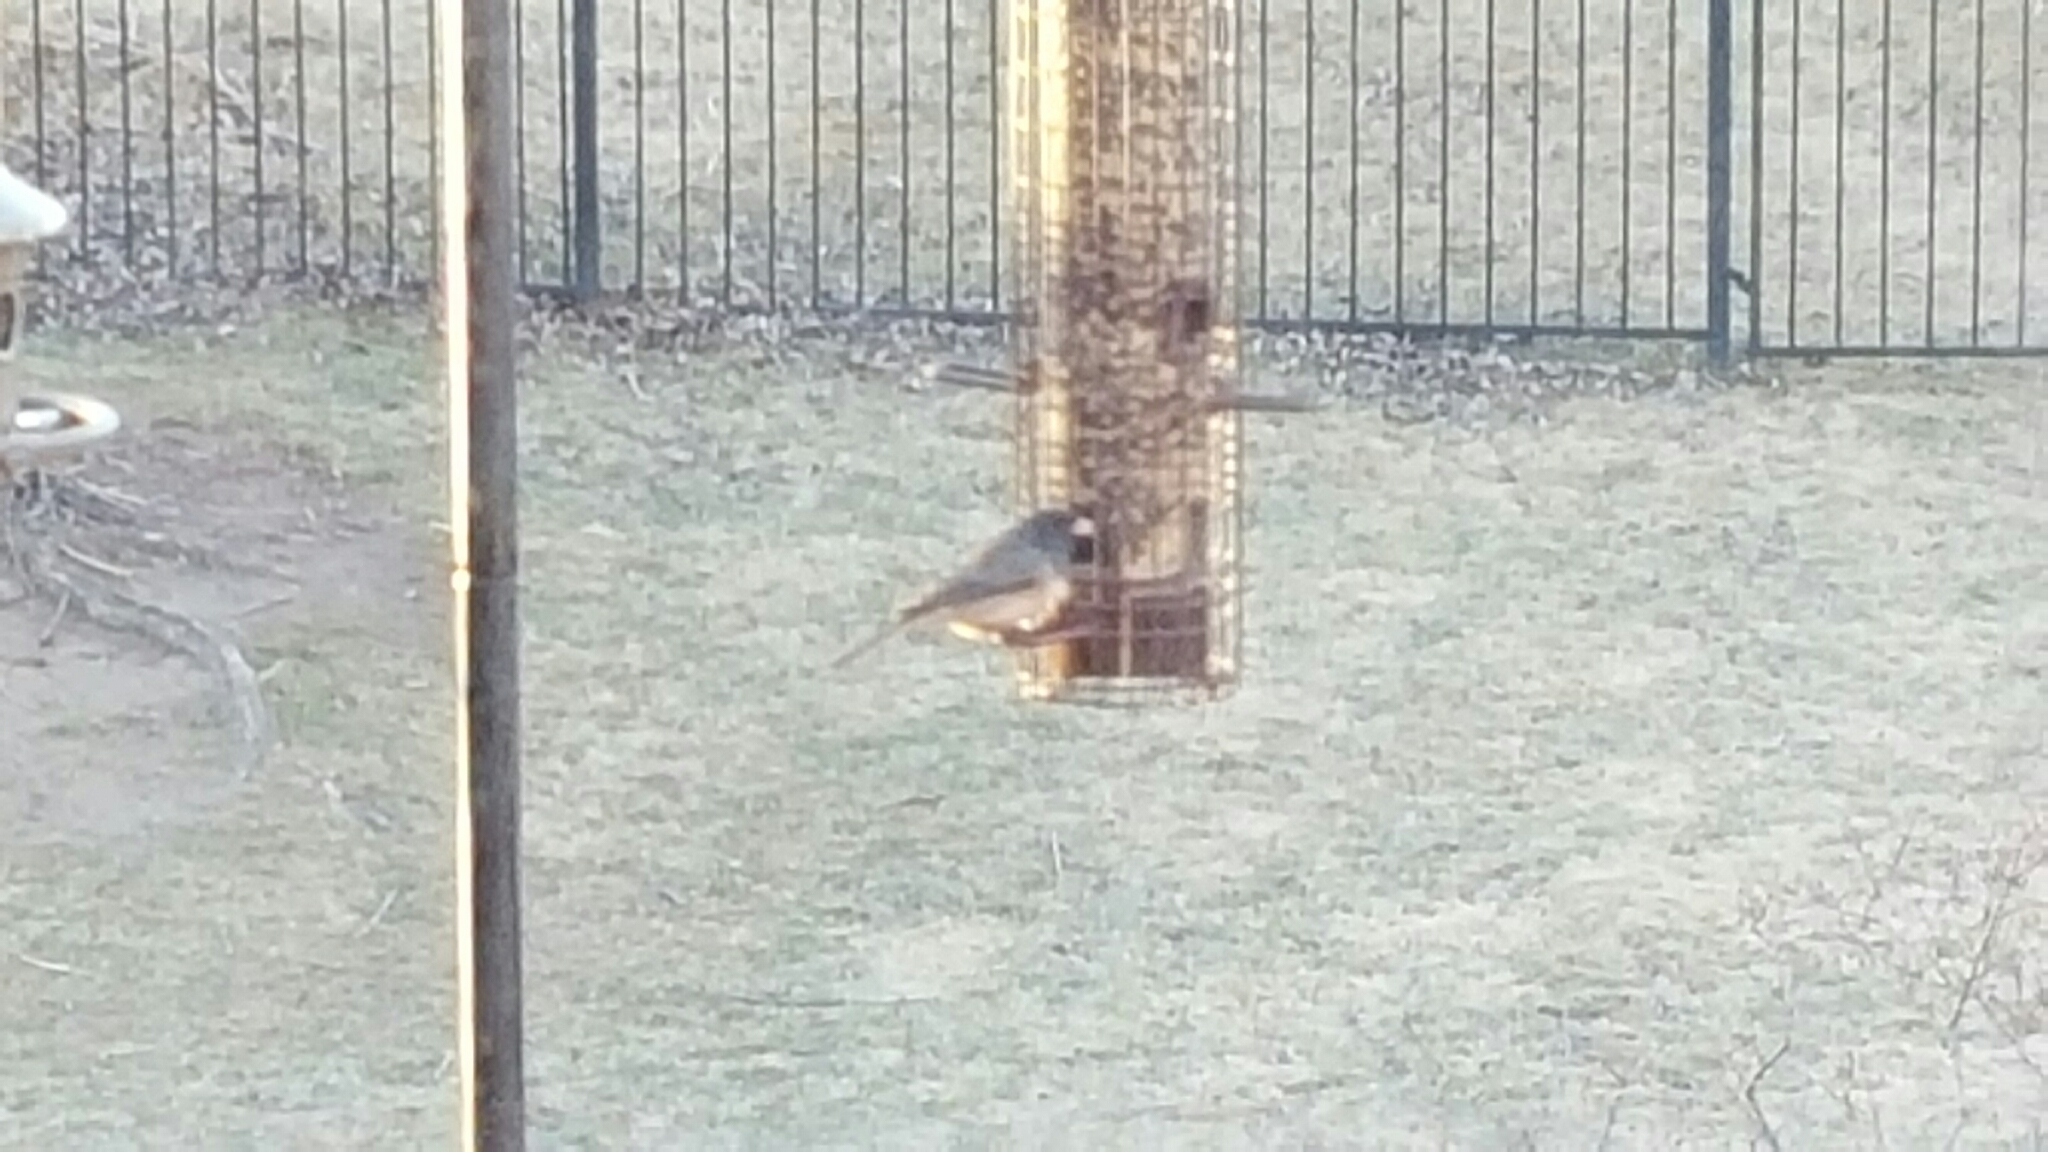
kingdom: Animalia
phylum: Chordata
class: Aves
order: Passeriformes
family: Passerellidae
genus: Junco
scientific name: Junco hyemalis
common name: Dark-eyed junco
